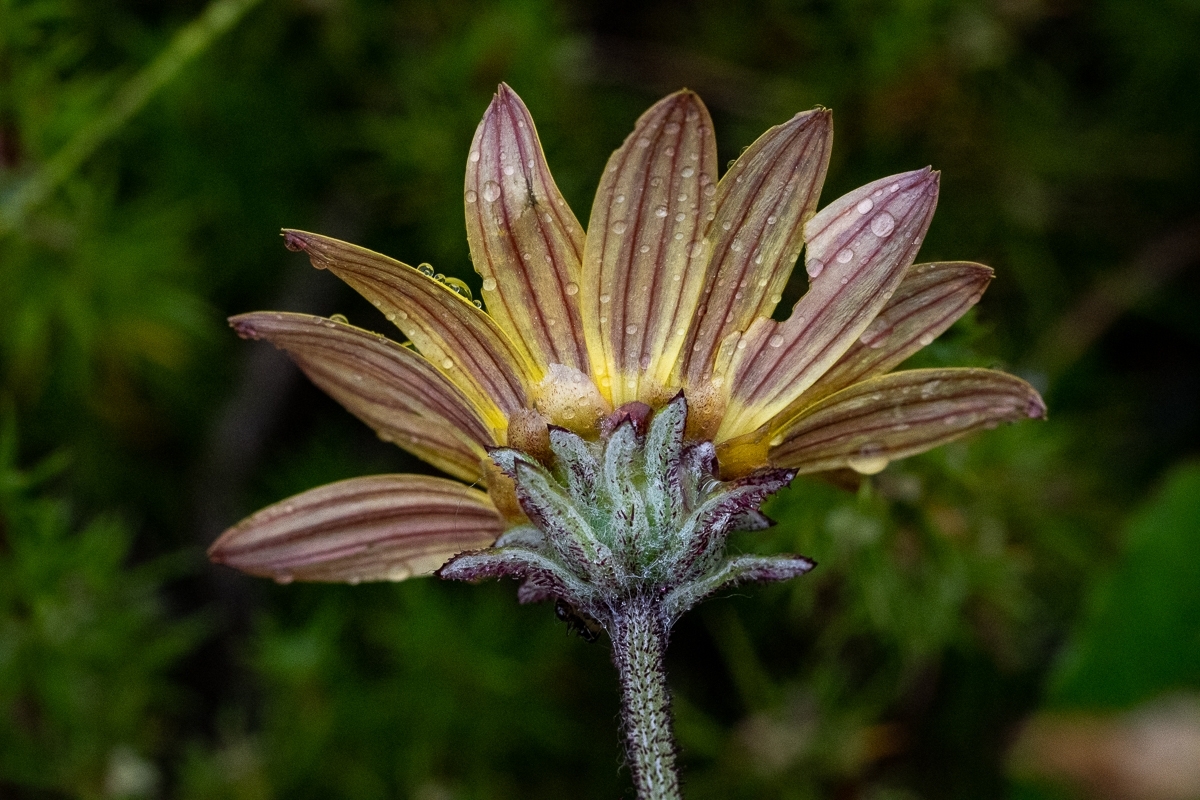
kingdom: Plantae
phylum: Tracheophyta
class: Magnoliopsida
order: Asterales
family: Asteraceae
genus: Arctotis
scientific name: Arctotis scabra
